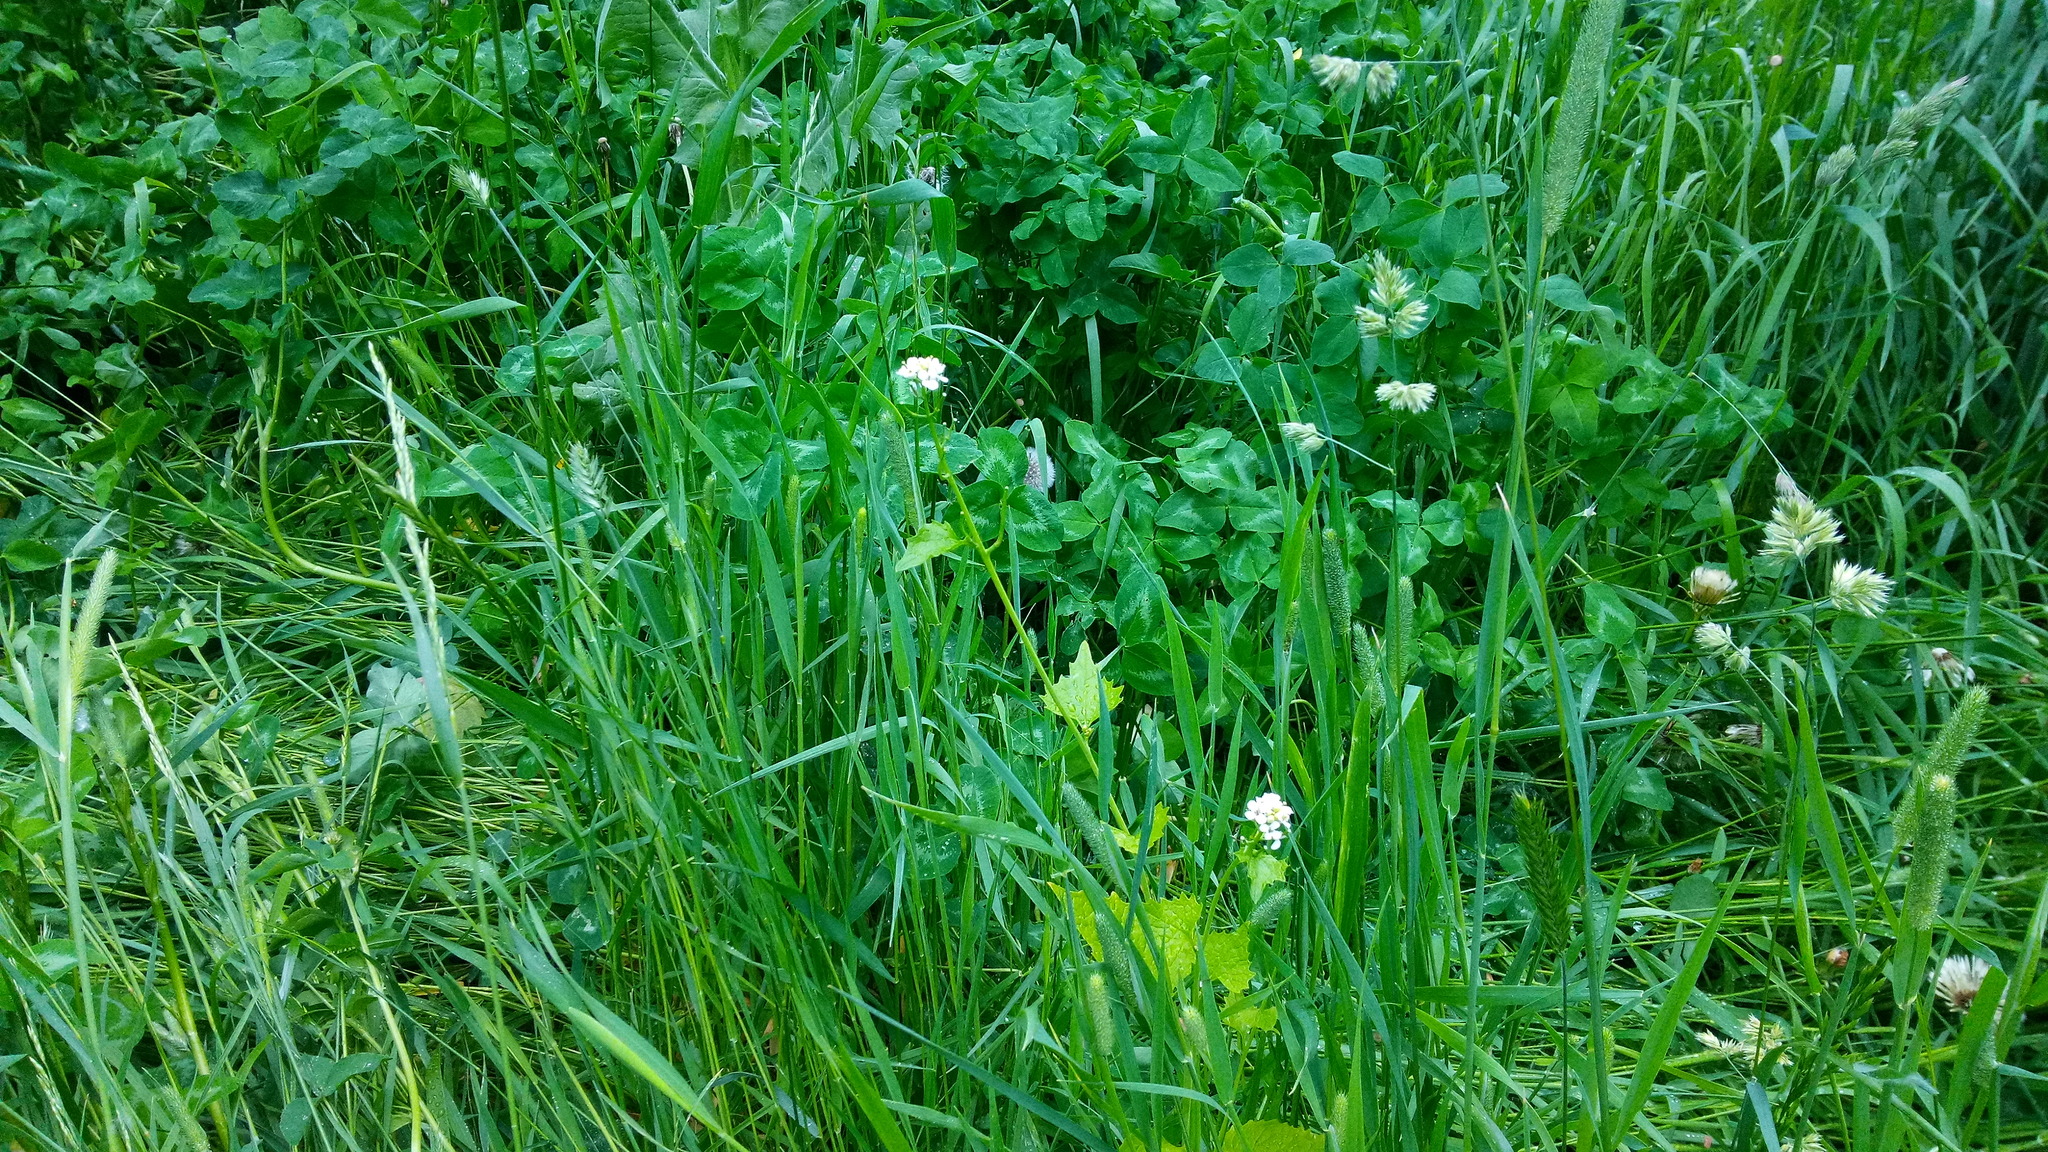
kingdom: Plantae
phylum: Tracheophyta
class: Magnoliopsida
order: Brassicales
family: Brassicaceae
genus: Alliaria
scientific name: Alliaria petiolata
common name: Garlic mustard
